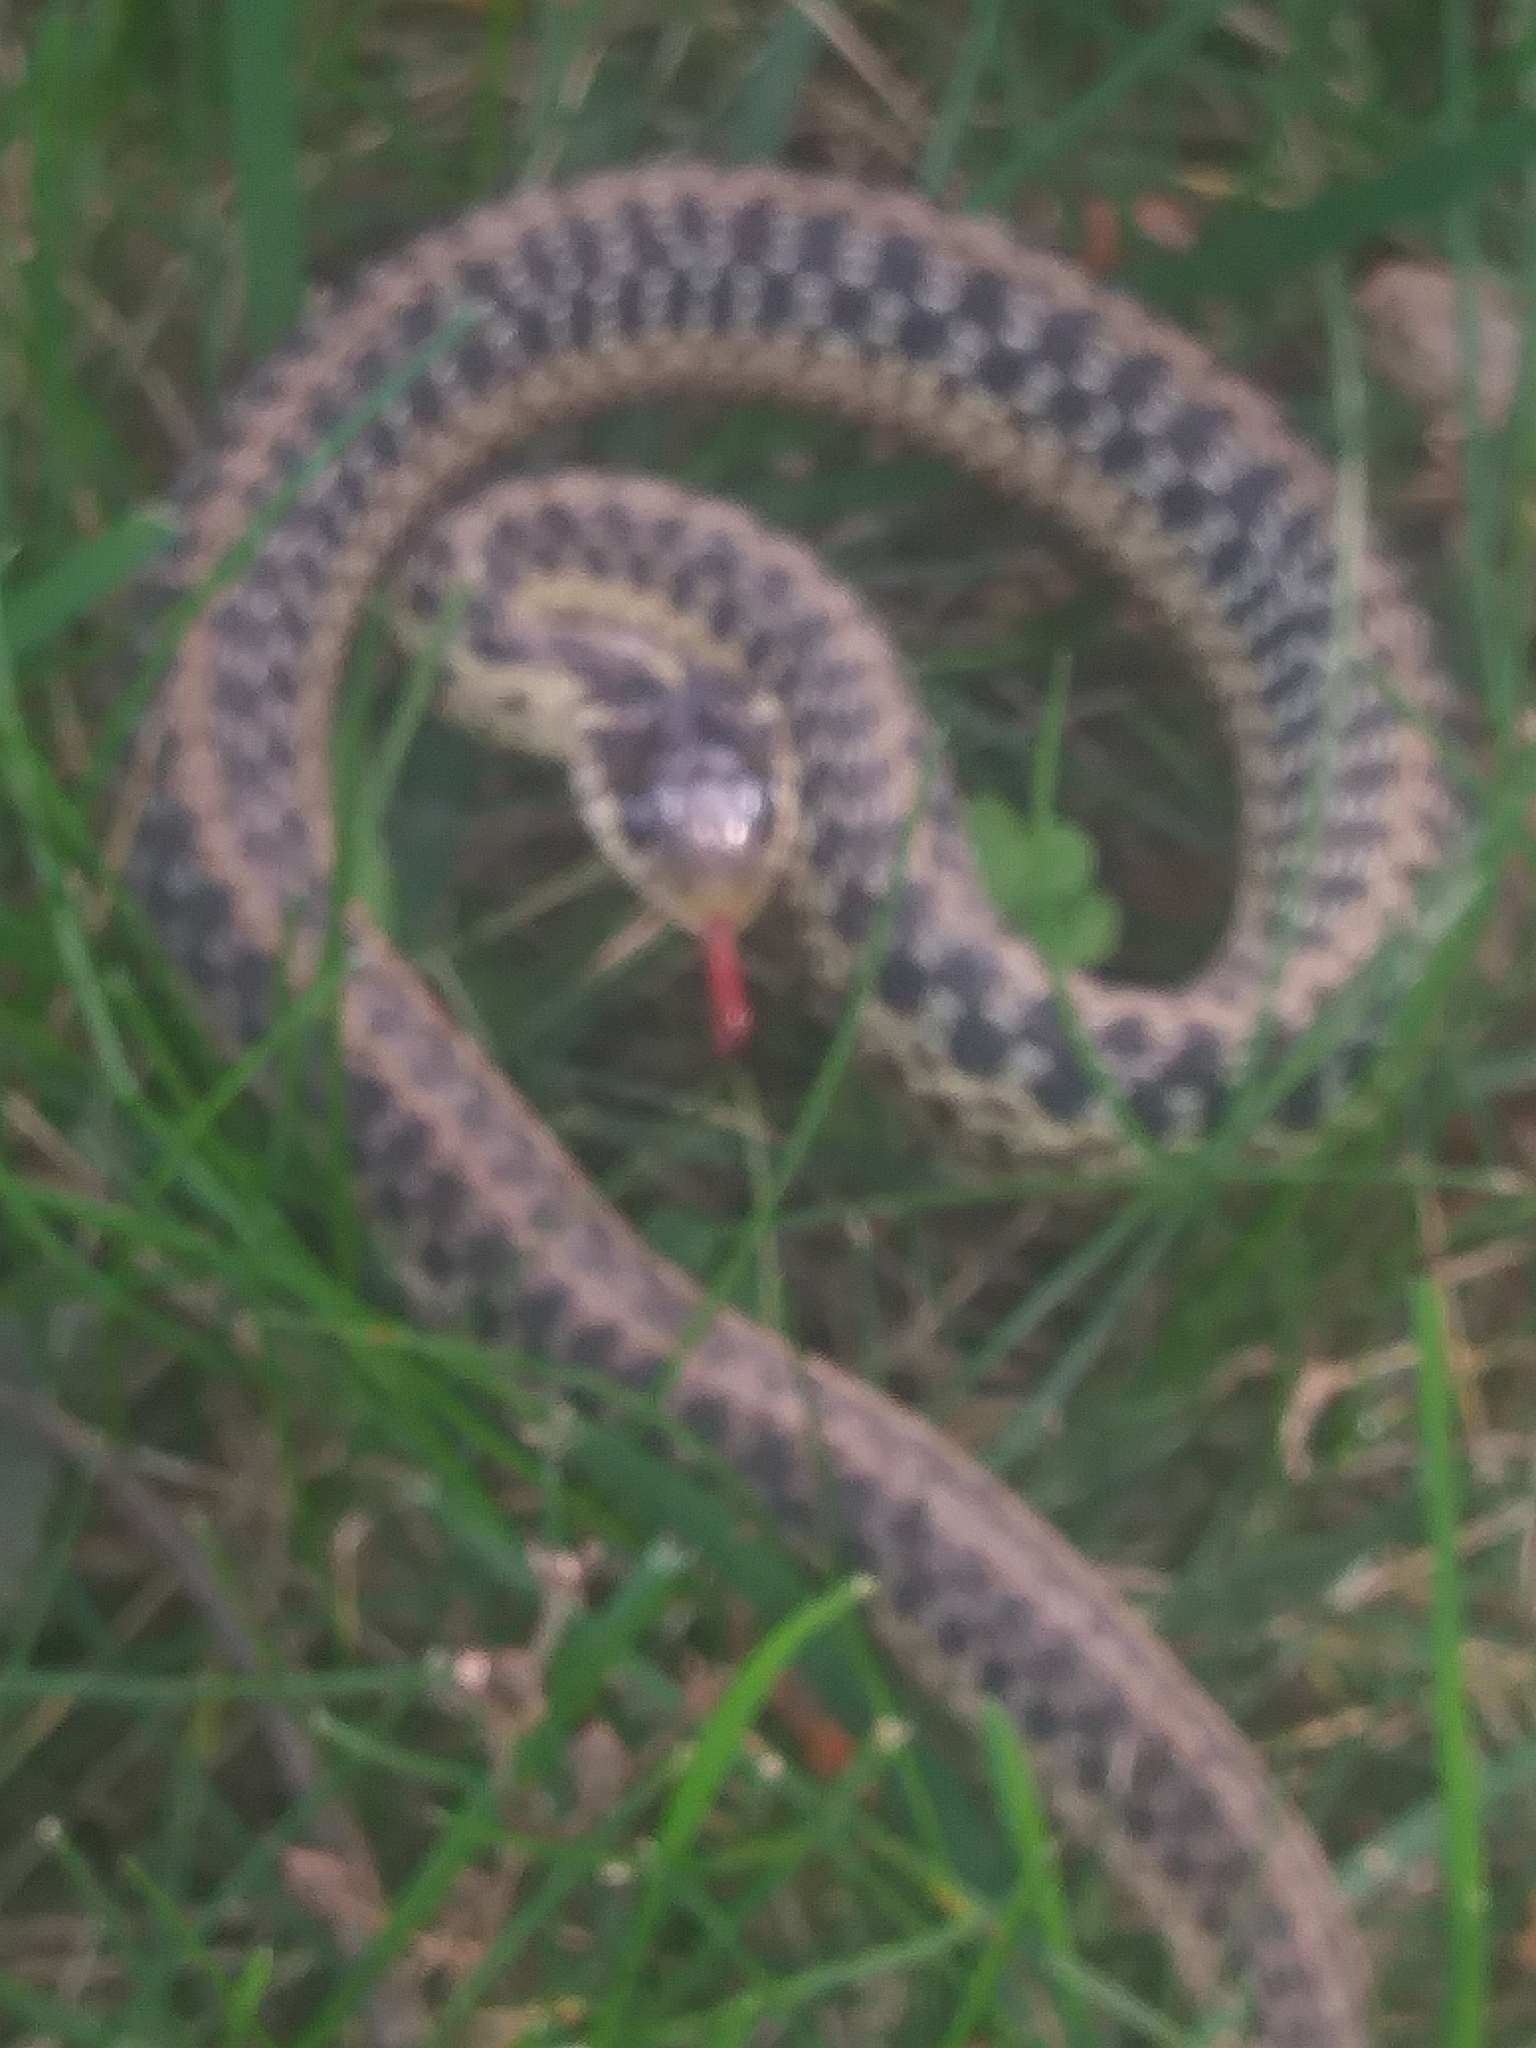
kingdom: Animalia
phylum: Chordata
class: Squamata
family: Colubridae
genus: Thamnophis
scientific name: Thamnophis sirtalis
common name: Common garter snake
